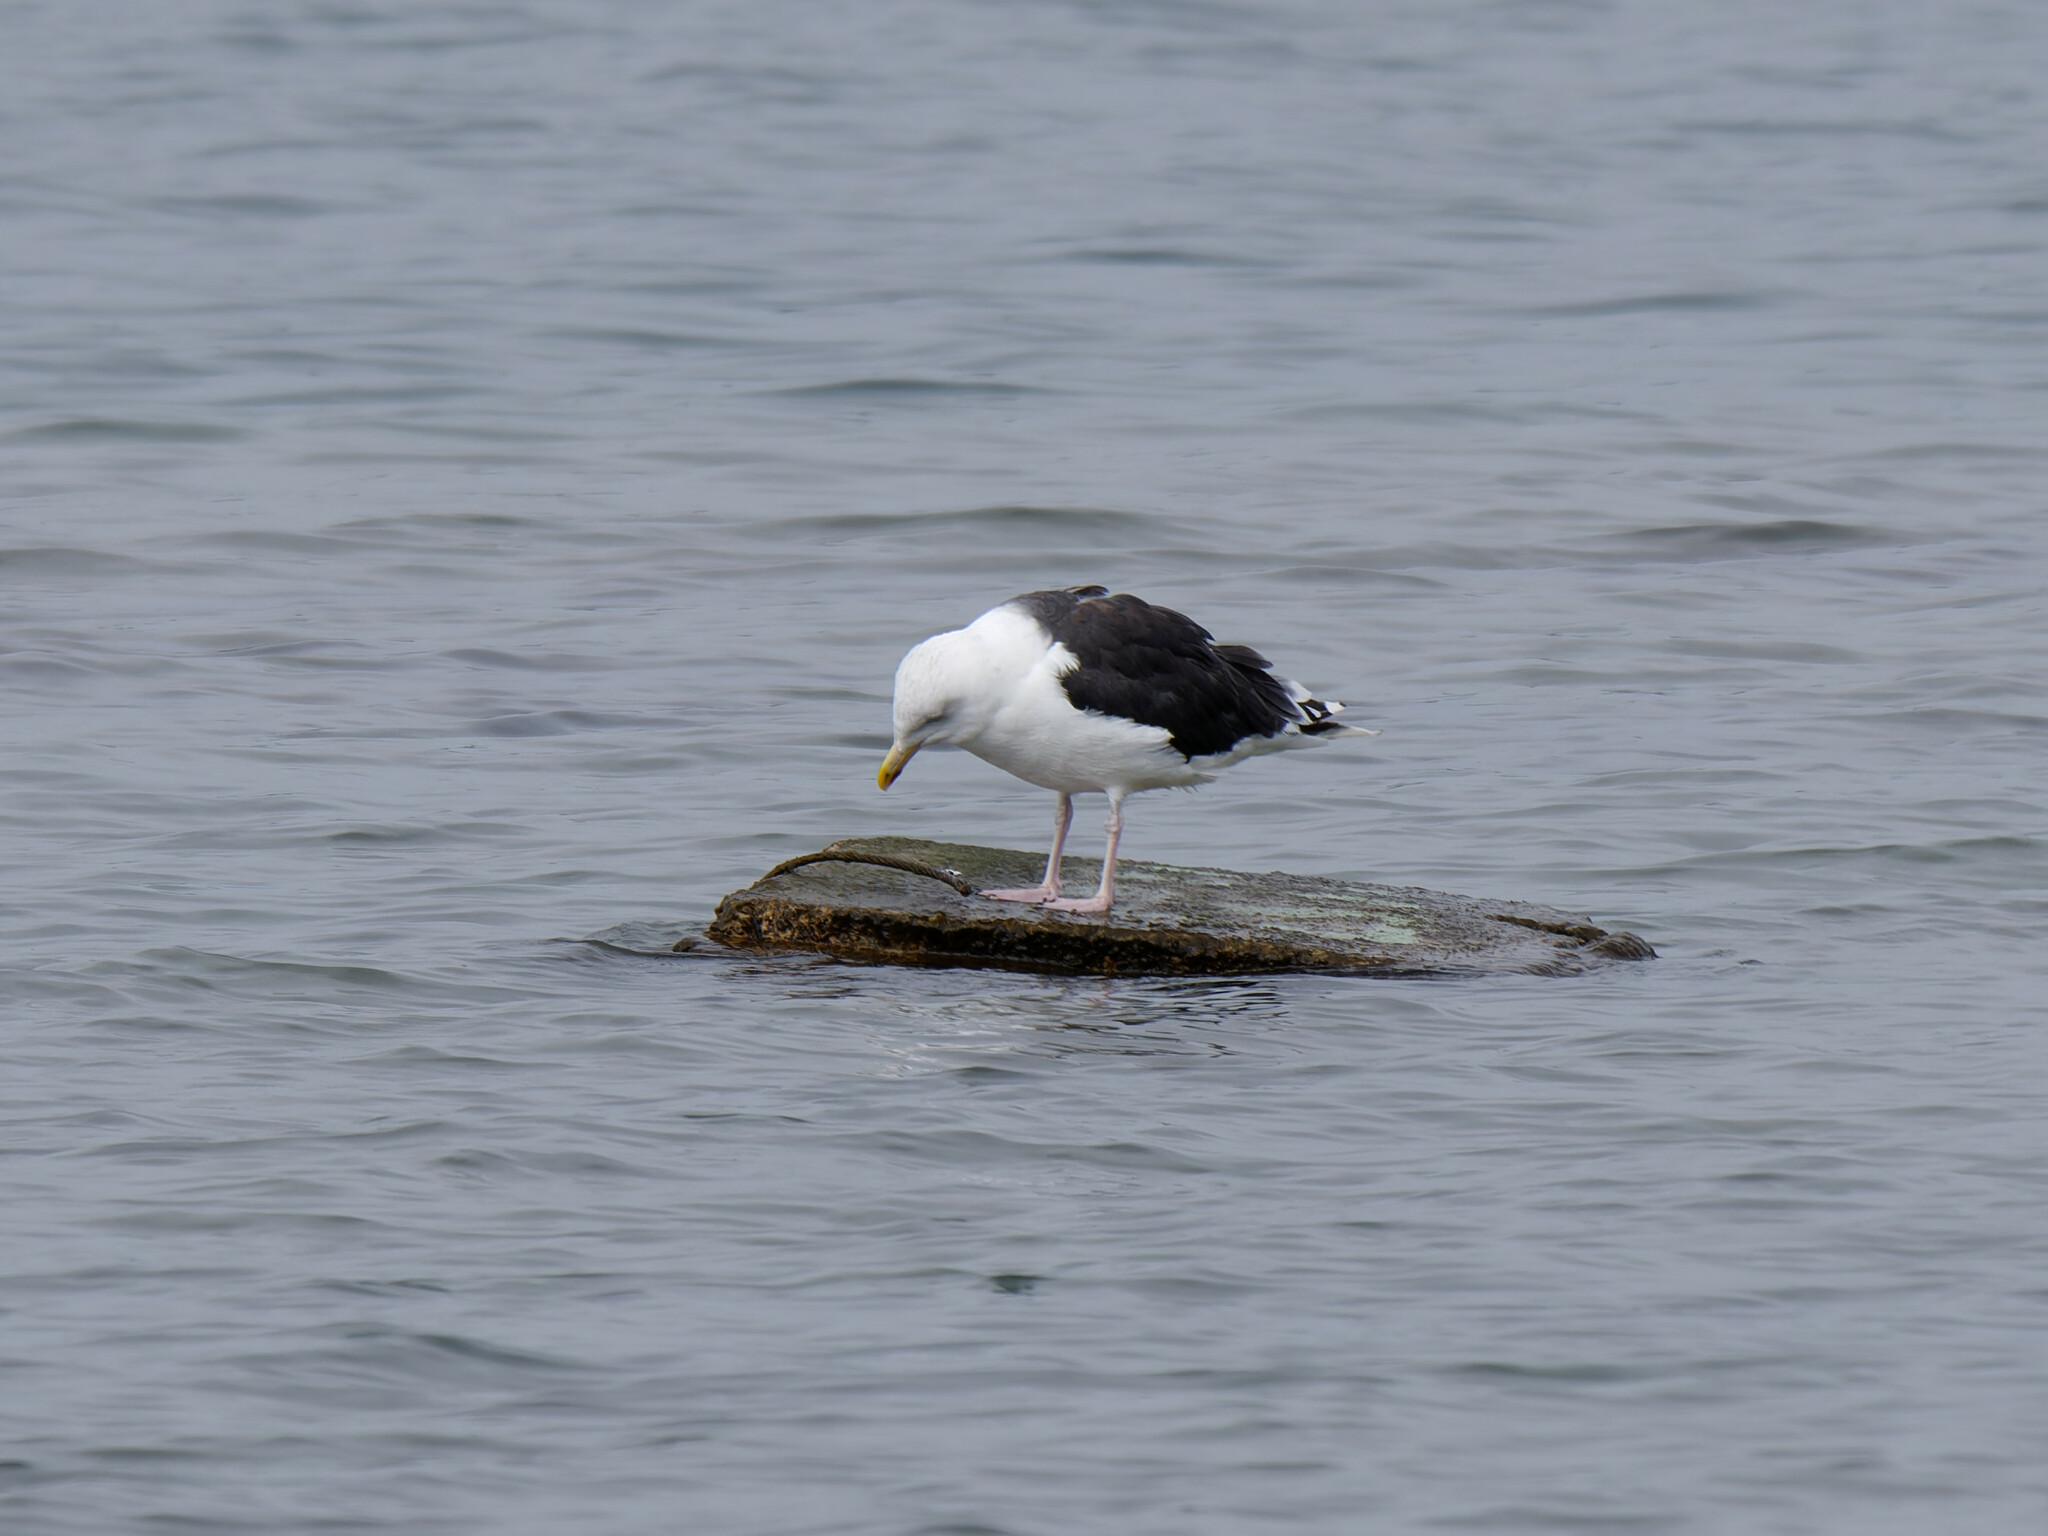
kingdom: Animalia
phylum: Chordata
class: Aves
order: Charadriiformes
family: Laridae
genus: Larus
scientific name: Larus marinus
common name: Great black-backed gull
